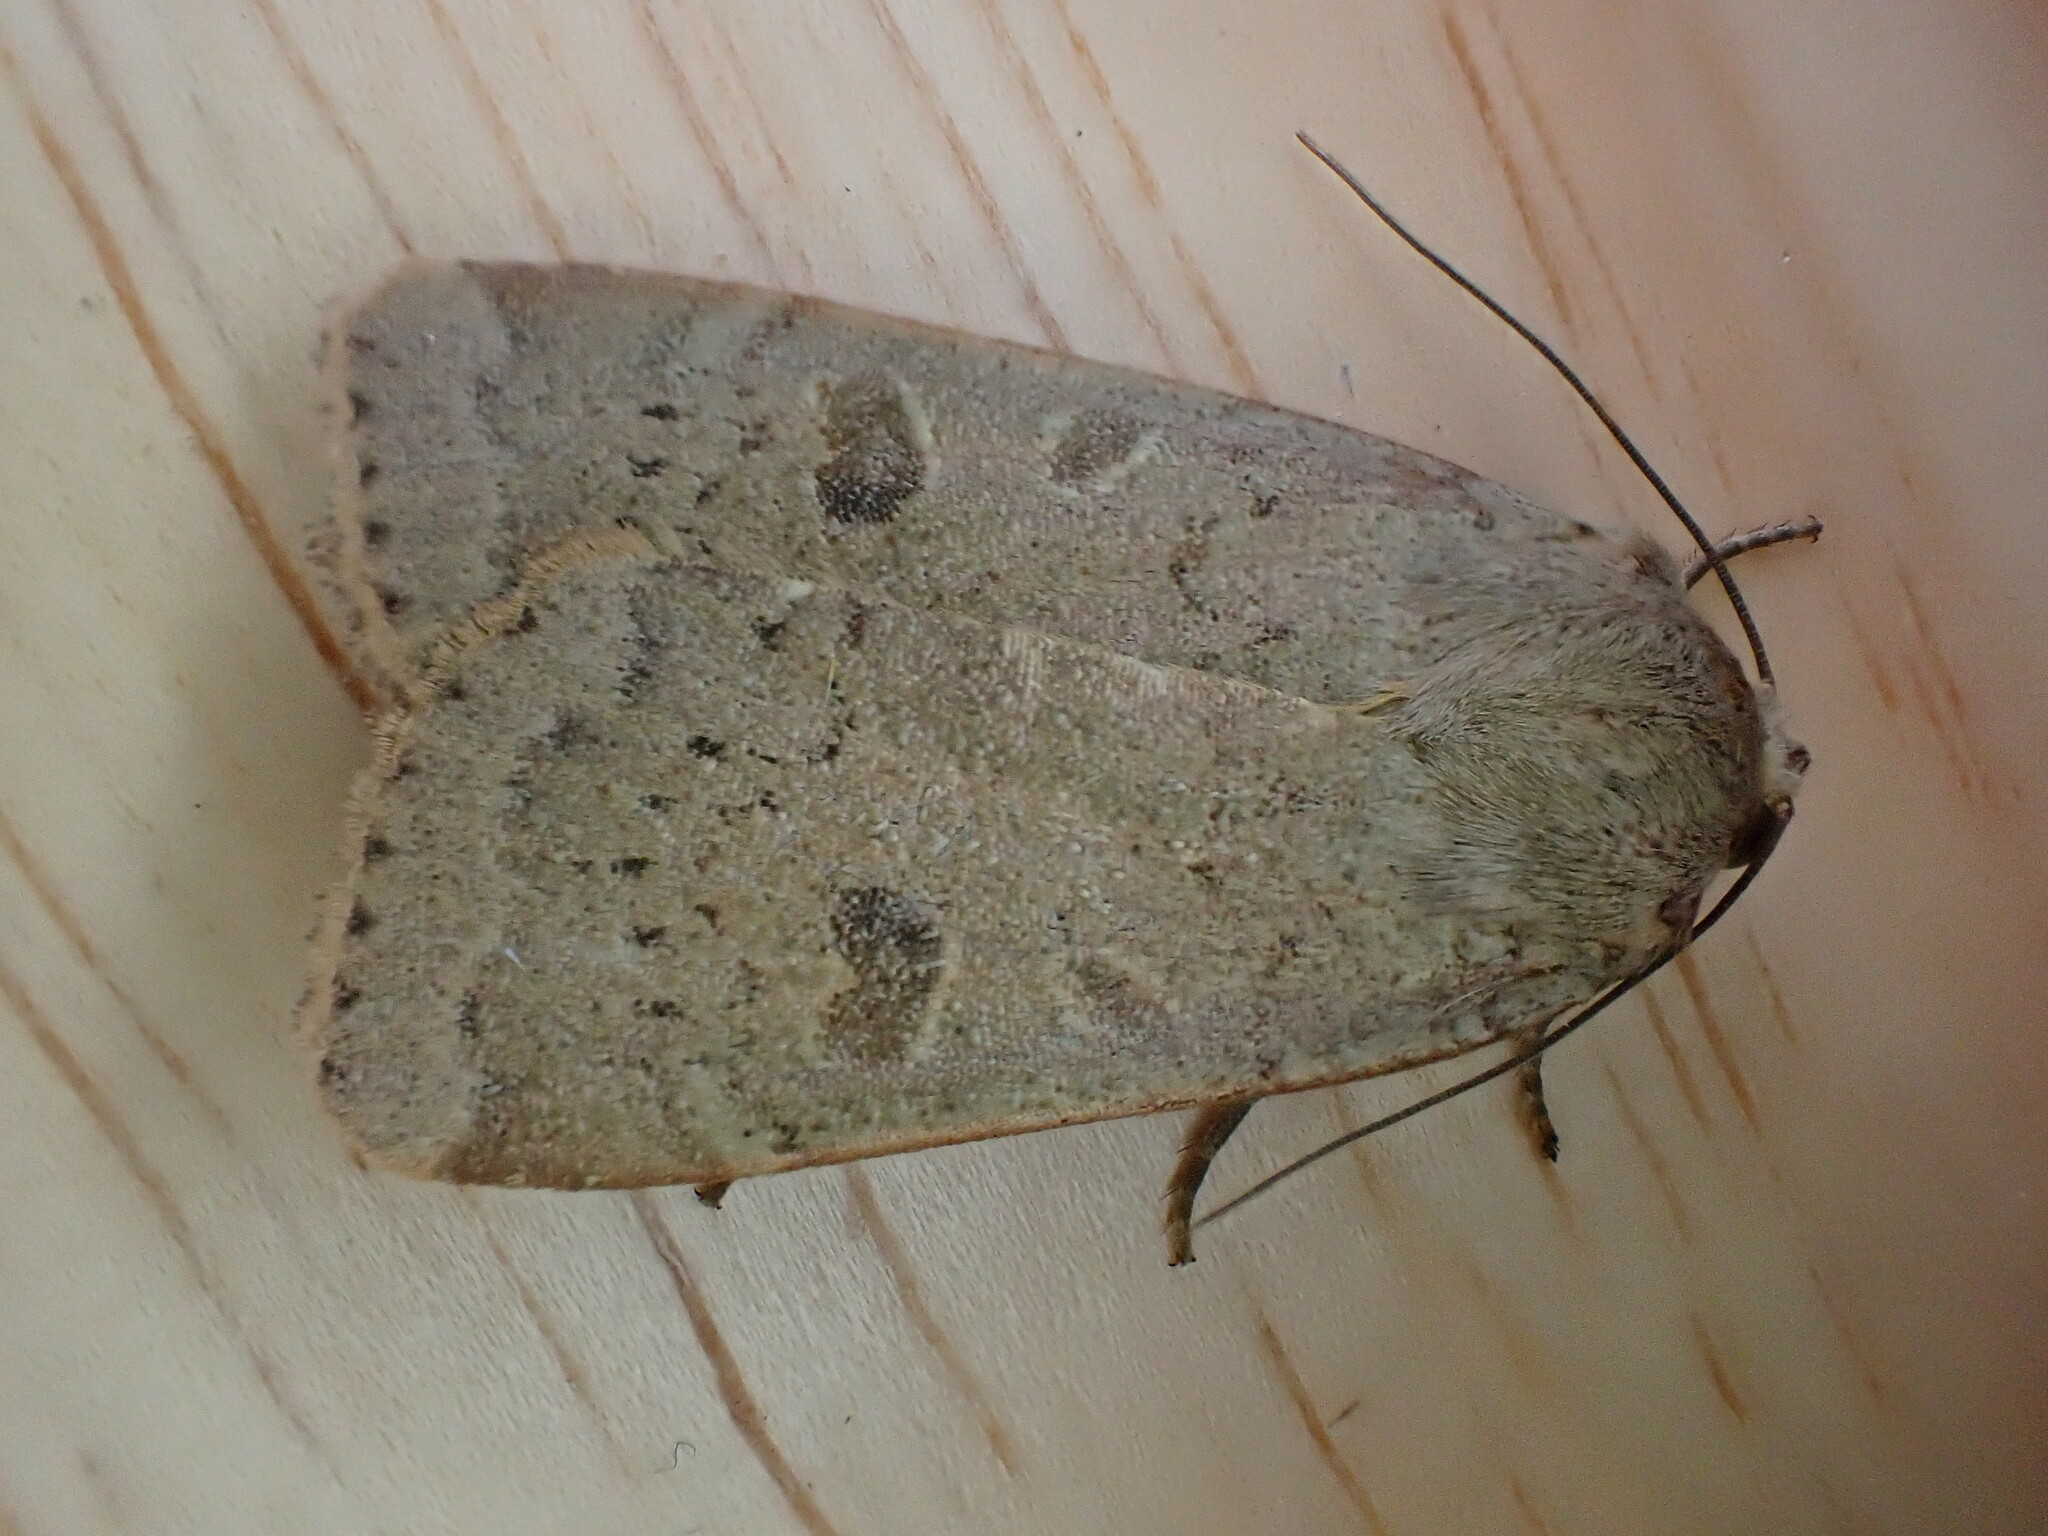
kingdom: Animalia
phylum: Arthropoda
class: Insecta
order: Lepidoptera
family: Noctuidae
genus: Noctua
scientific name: Noctua comes
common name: Lesser yellow underwing
